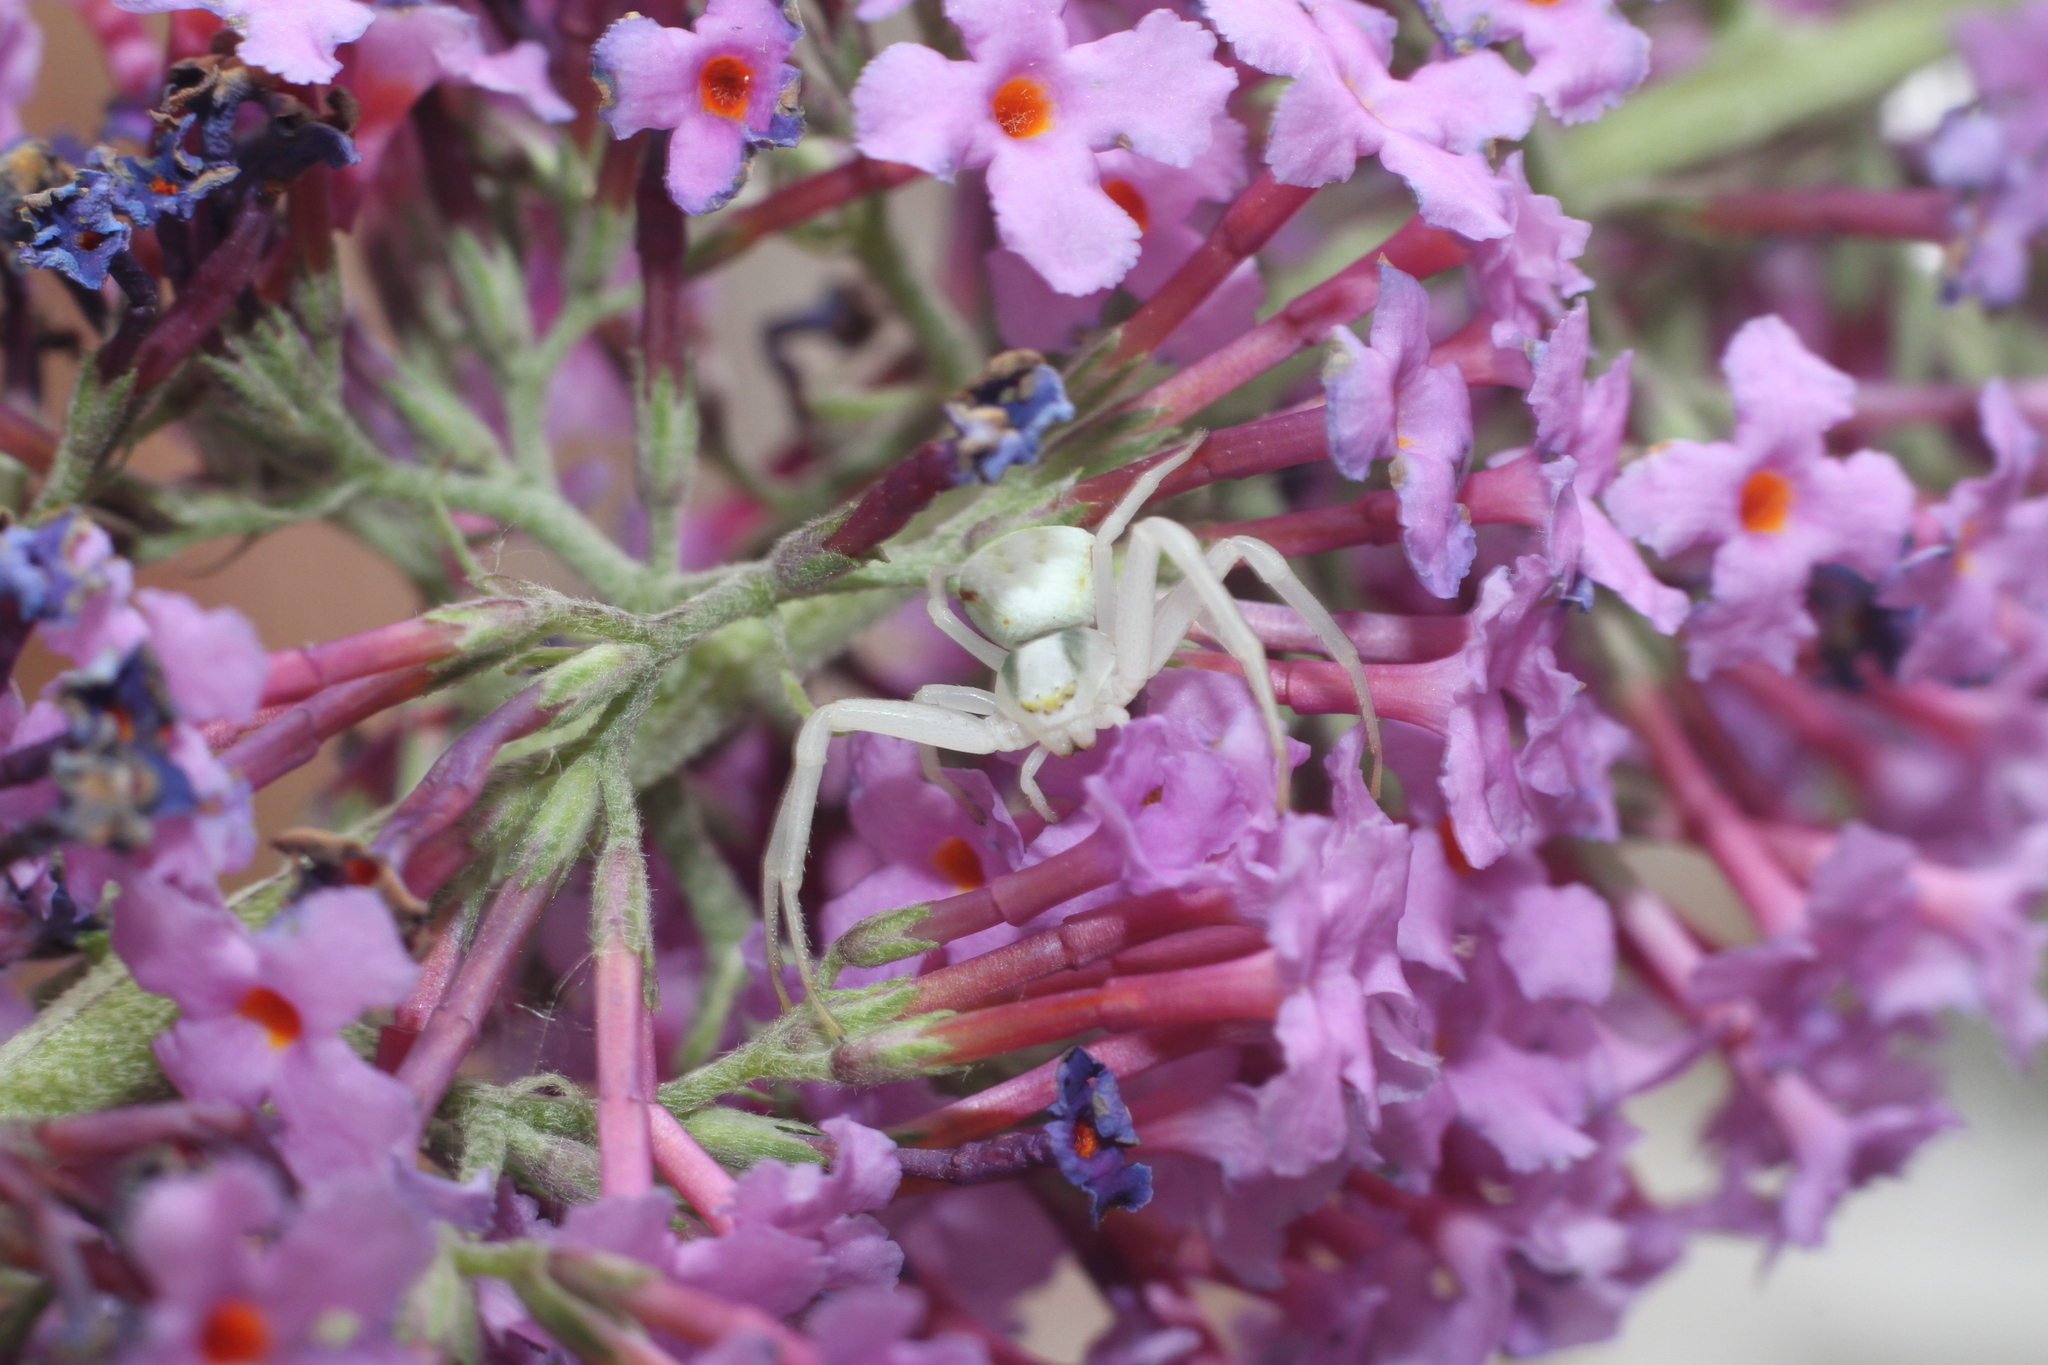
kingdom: Animalia
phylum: Arthropoda
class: Arachnida
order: Araneae
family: Thomisidae
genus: Misumena
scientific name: Misumena vatia
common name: Goldenrod crab spider
